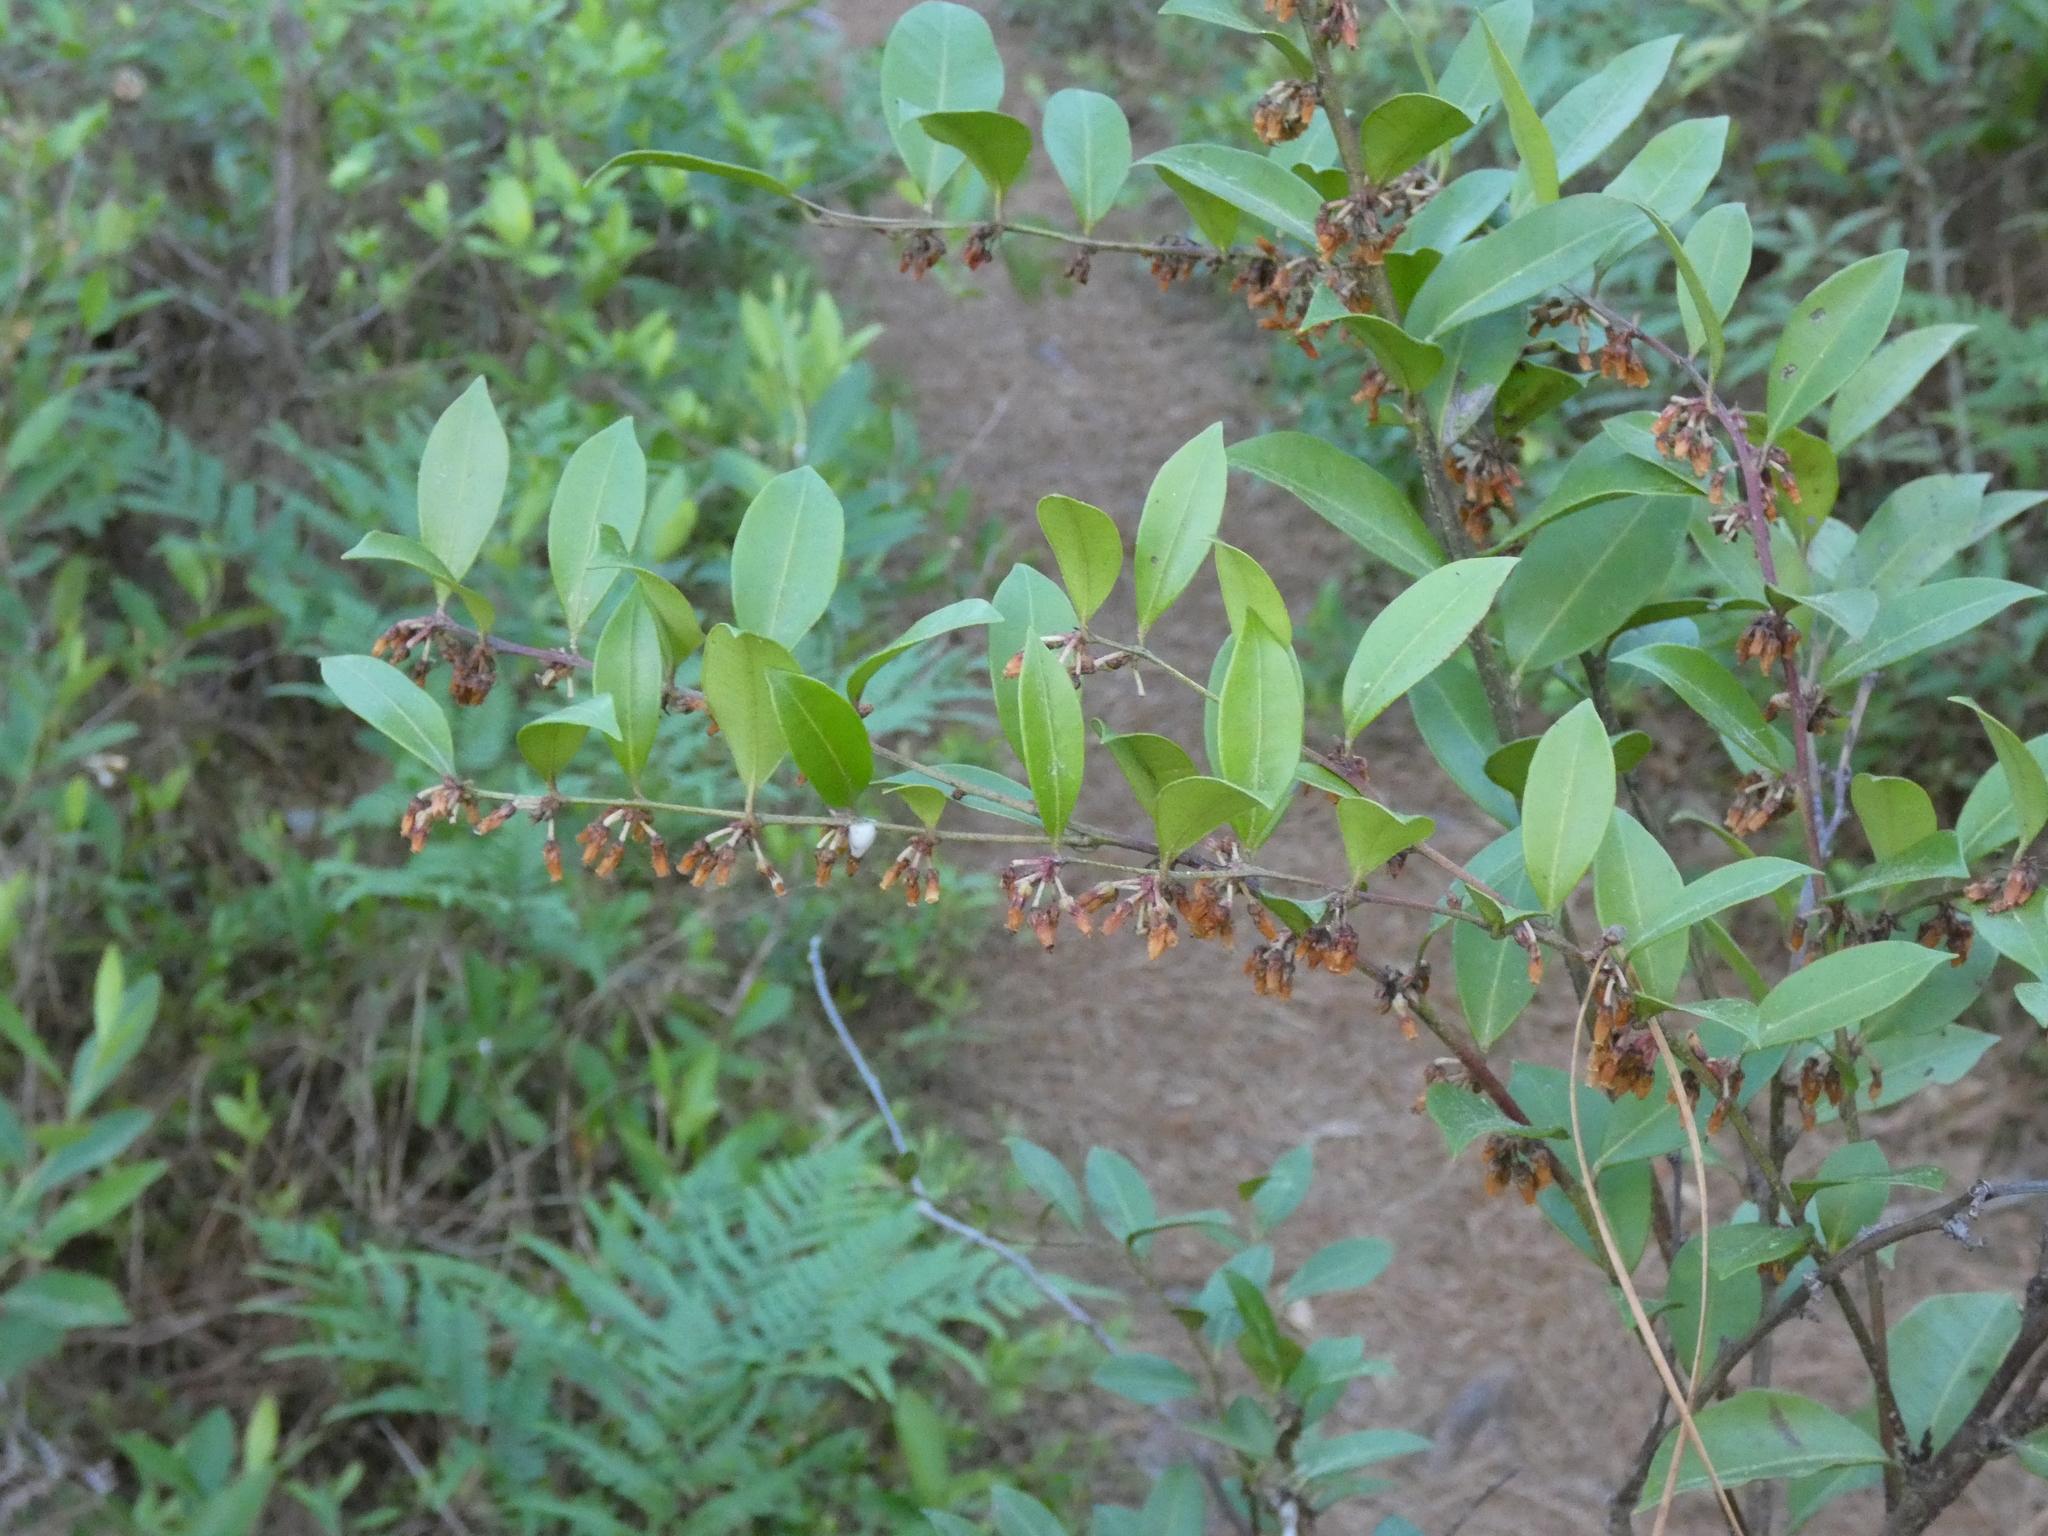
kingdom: Plantae
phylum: Tracheophyta
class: Magnoliopsida
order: Ericales
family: Ericaceae
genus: Lyonia
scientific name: Lyonia lucida
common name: Fetterbush
